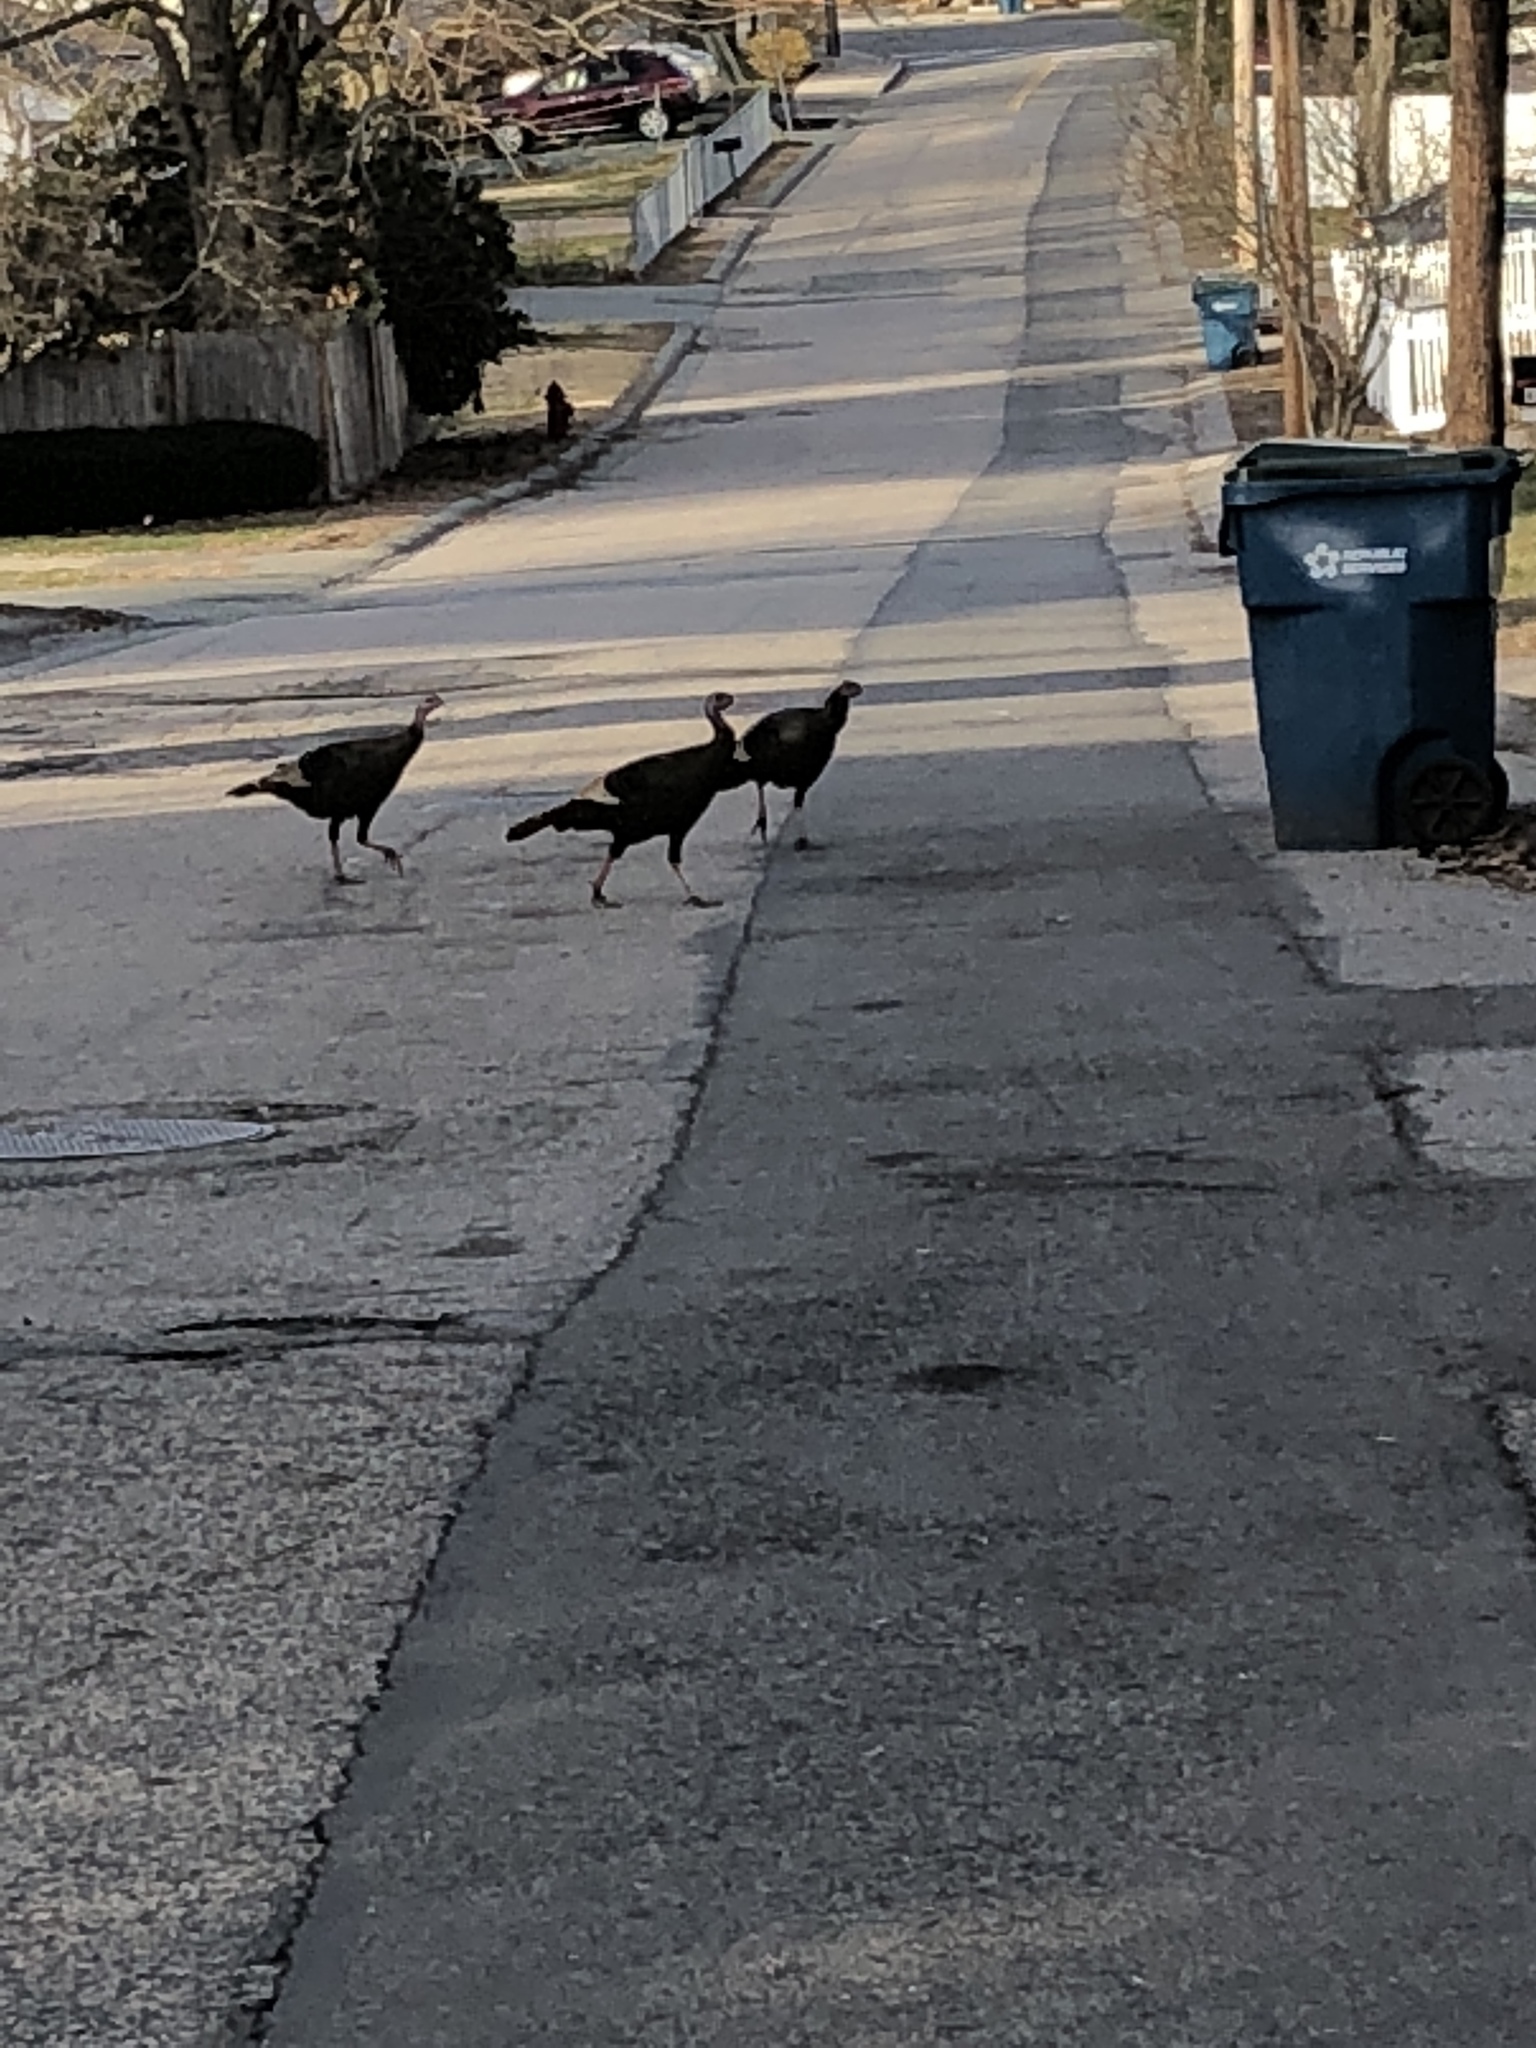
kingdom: Animalia
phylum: Chordata
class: Aves
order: Galliformes
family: Phasianidae
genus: Meleagris
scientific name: Meleagris gallopavo
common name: Wild turkey
